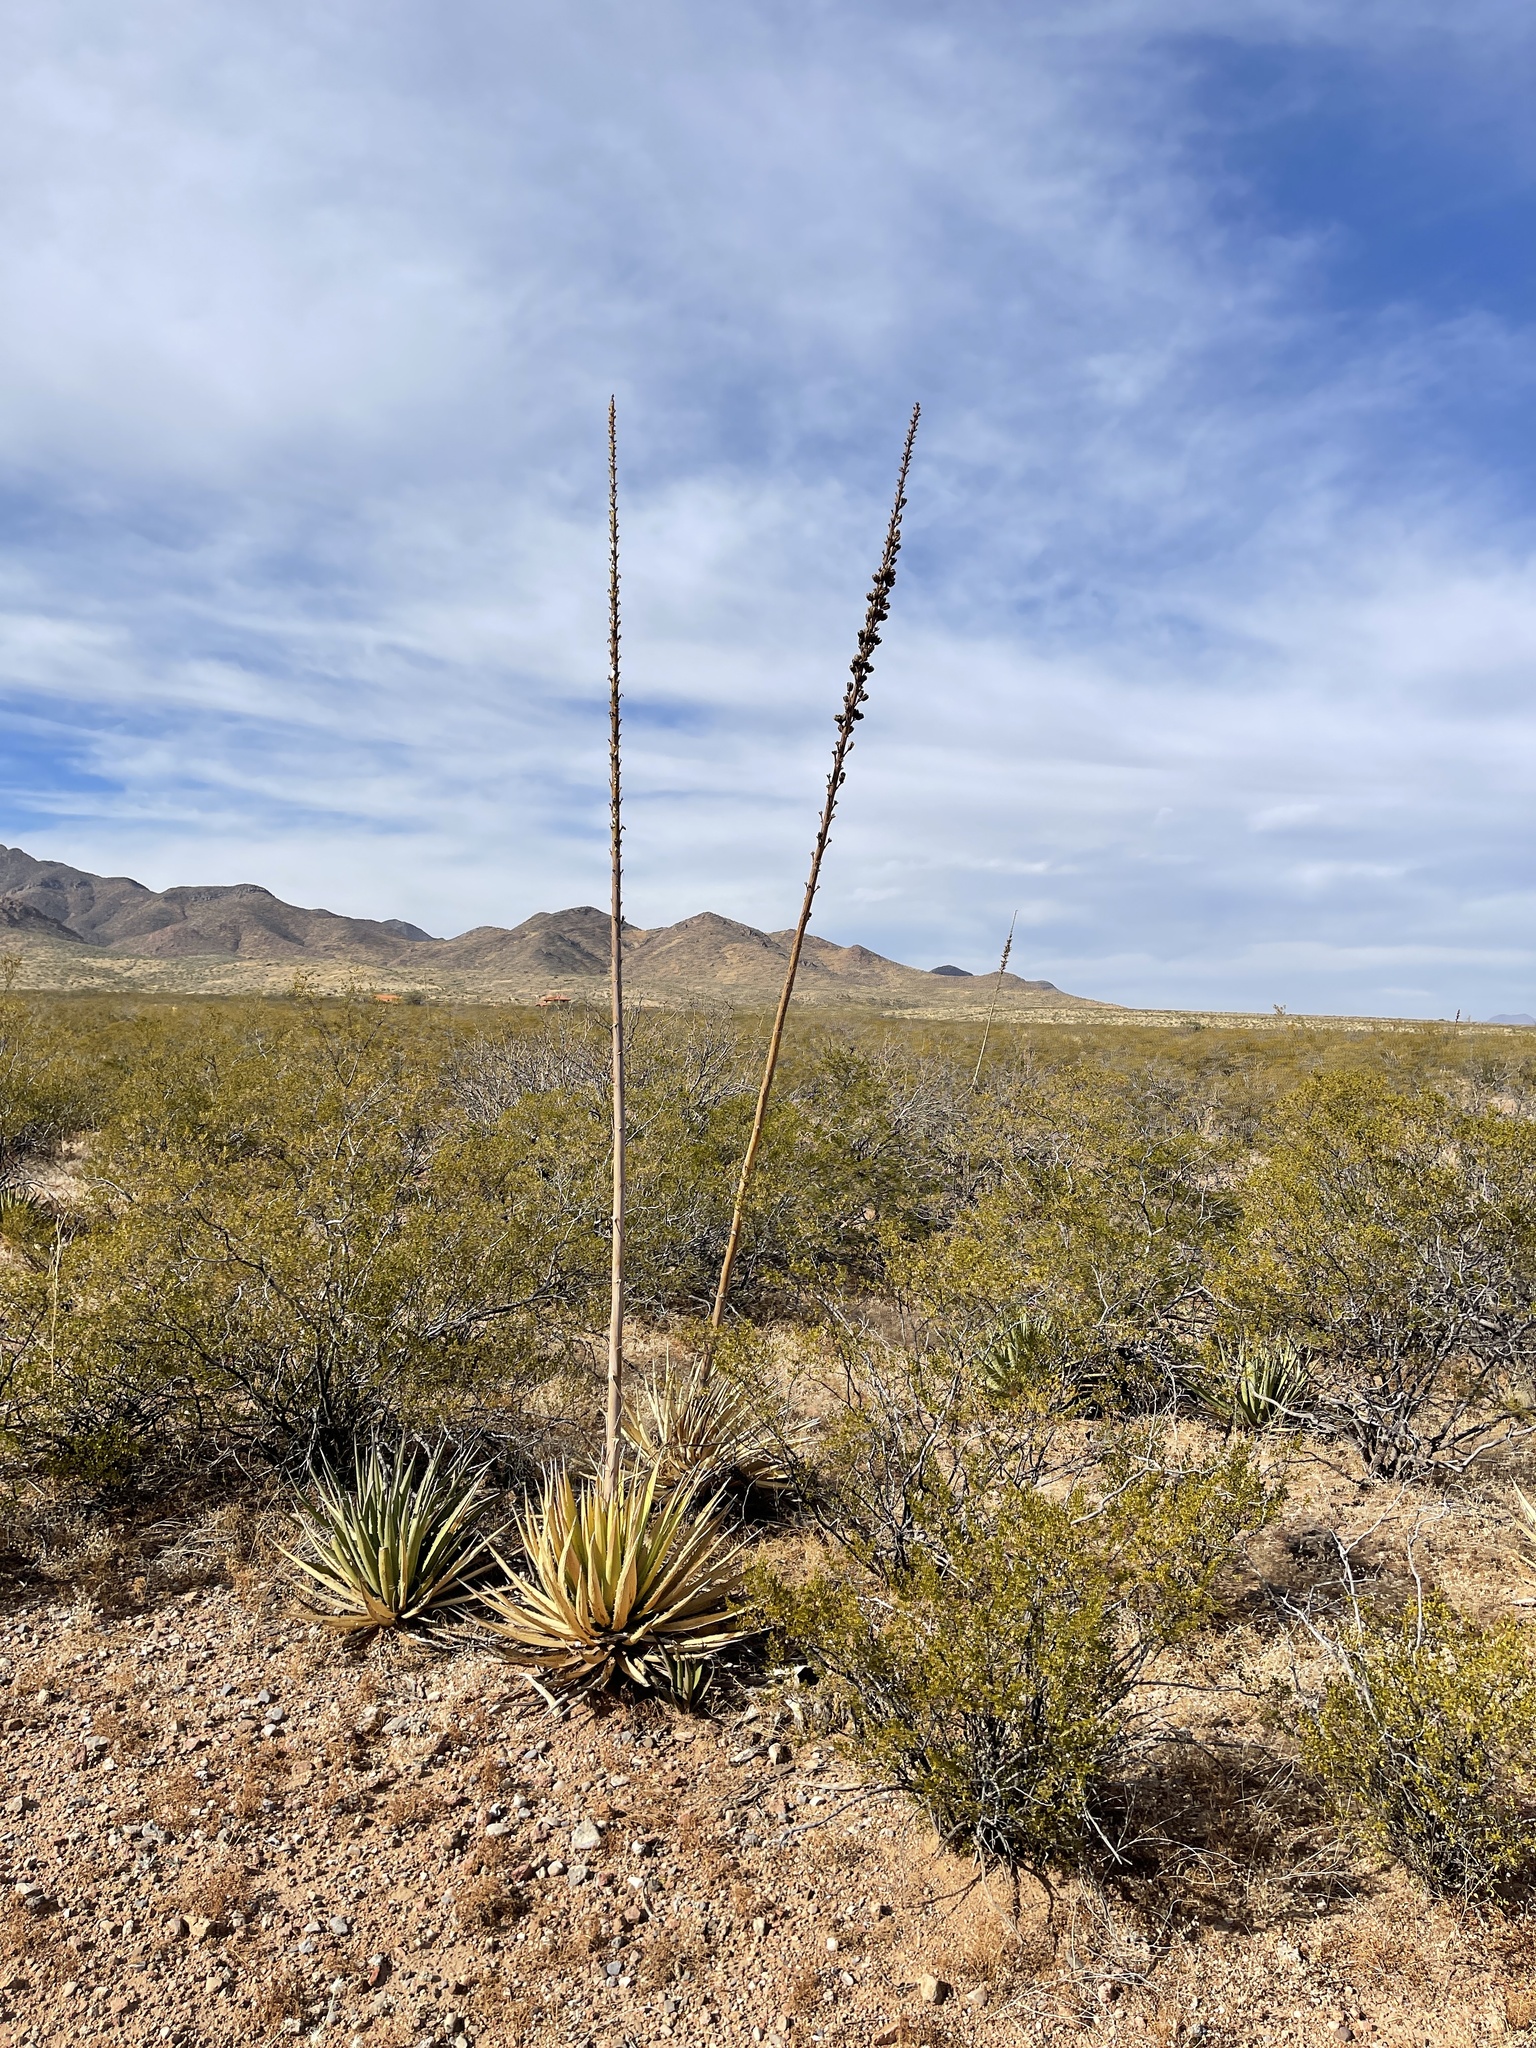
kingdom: Plantae
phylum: Tracheophyta
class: Liliopsida
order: Asparagales
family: Asparagaceae
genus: Agave
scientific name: Agave lechuguilla
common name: Lecheguilla agave
